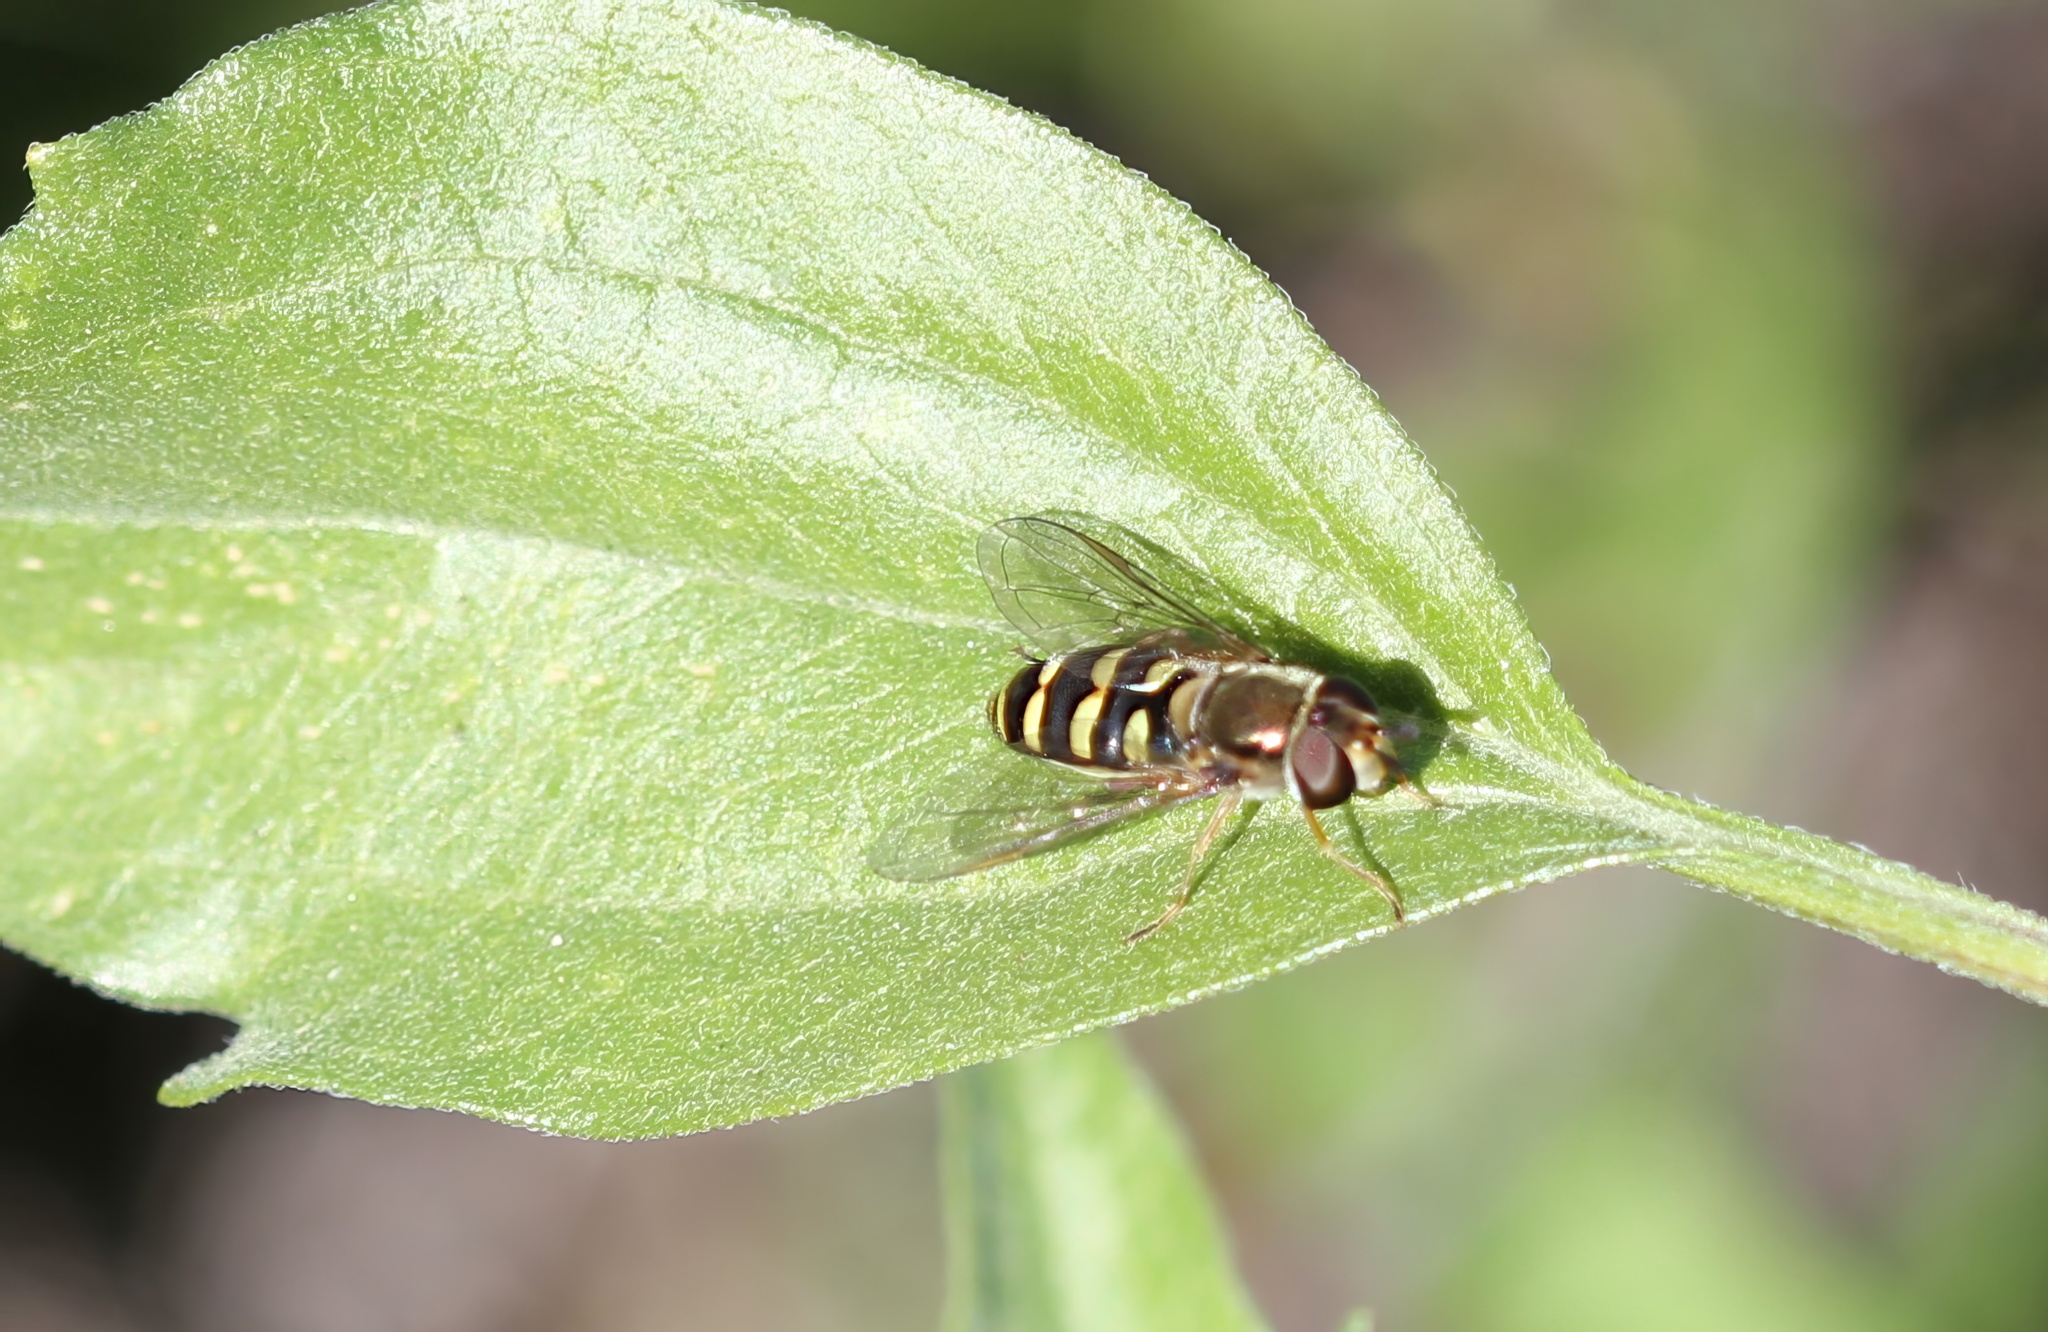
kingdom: Animalia
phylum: Arthropoda
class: Insecta
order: Diptera
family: Syrphidae
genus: Eupeodes
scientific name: Eupeodes fumipennis
